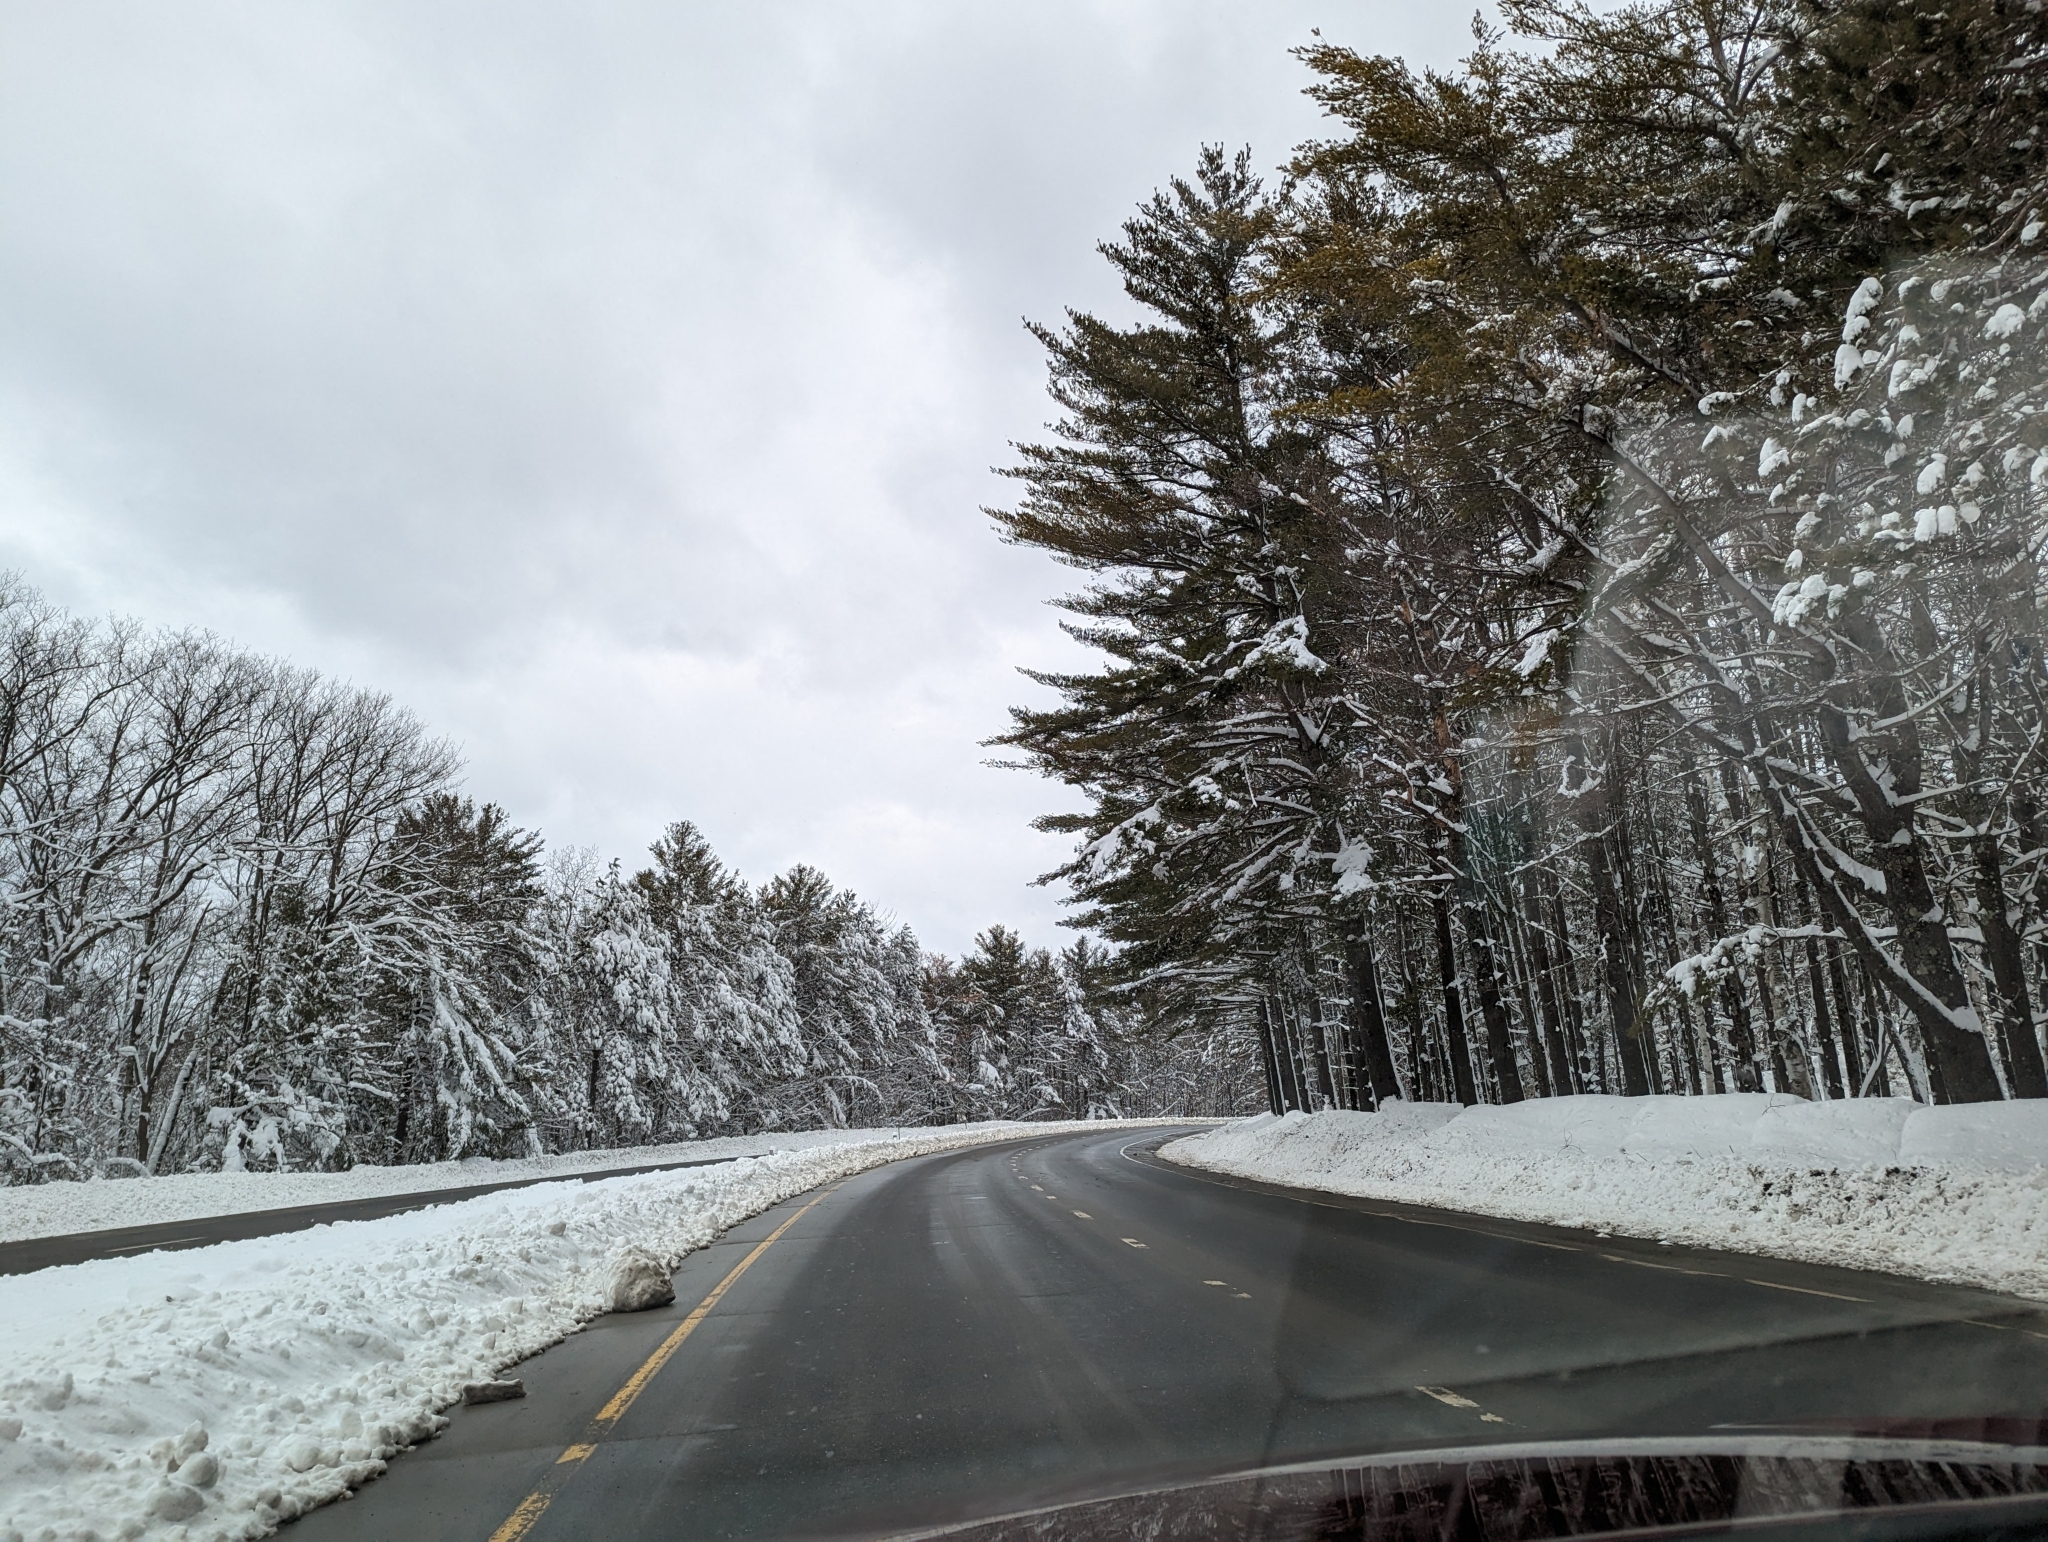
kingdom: Plantae
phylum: Tracheophyta
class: Pinopsida
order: Pinales
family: Pinaceae
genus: Pinus
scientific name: Pinus strobus
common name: Weymouth pine
